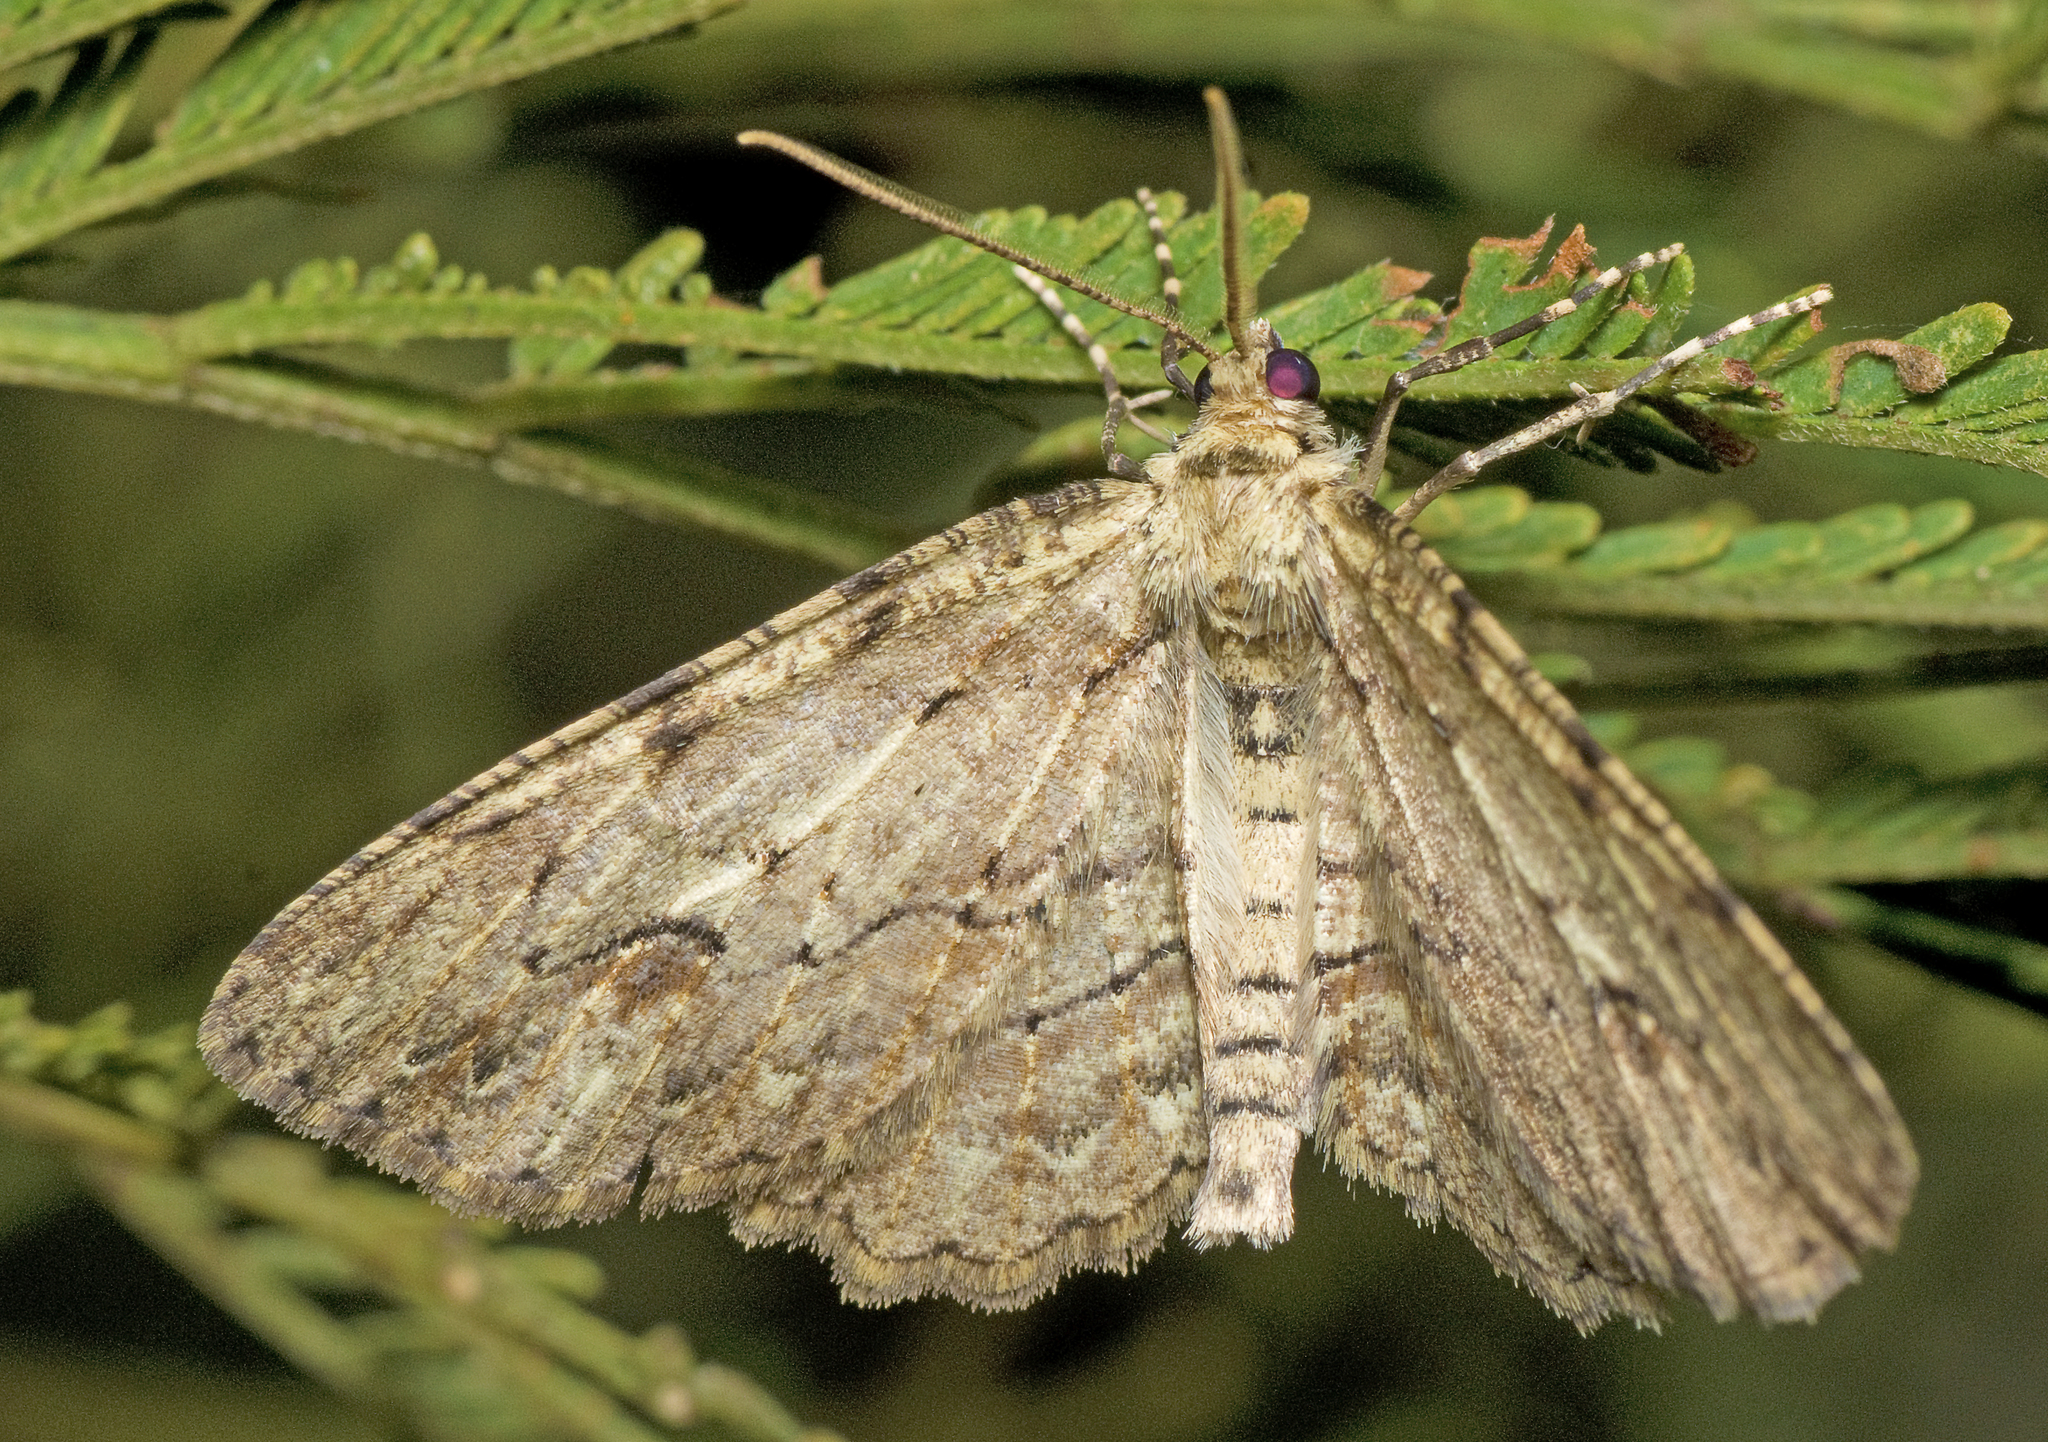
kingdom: Animalia
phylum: Arthropoda
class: Insecta
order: Lepidoptera
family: Geometridae
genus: Ectropis
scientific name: Ectropis bispinaria
